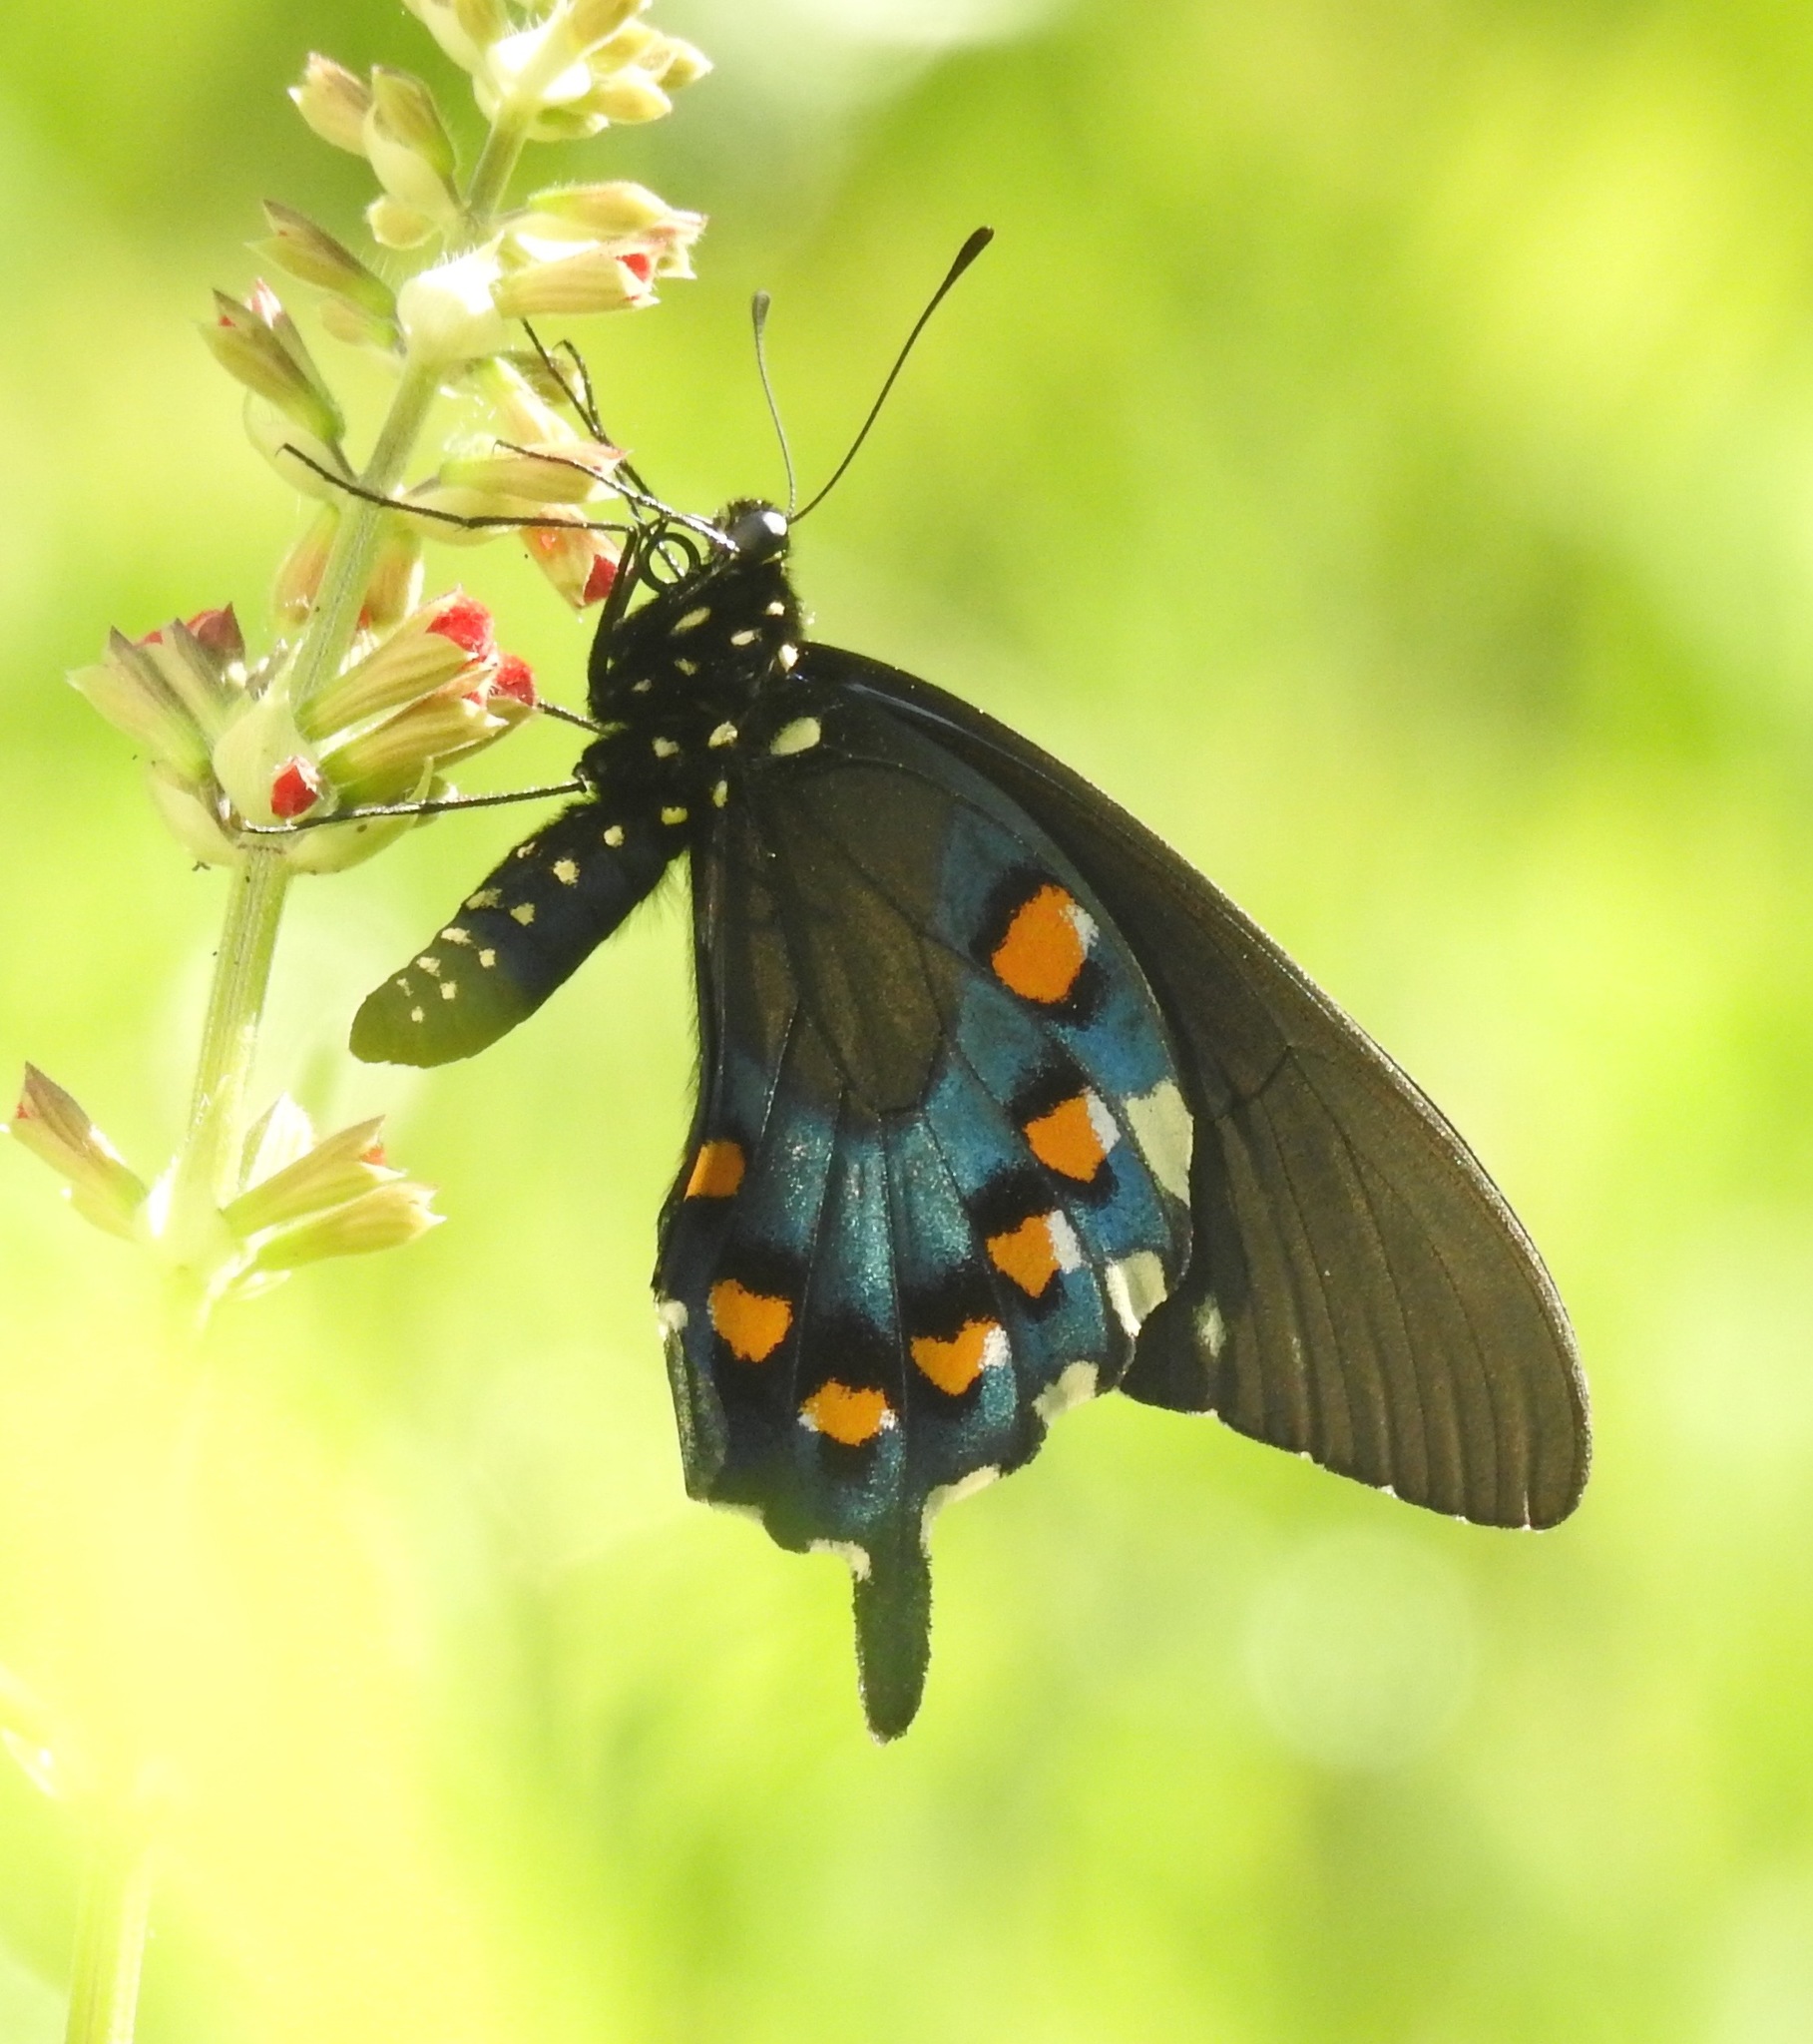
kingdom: Animalia
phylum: Arthropoda
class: Insecta
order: Lepidoptera
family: Papilionidae
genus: Battus
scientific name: Battus philenor
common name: Pipevine swallowtail
